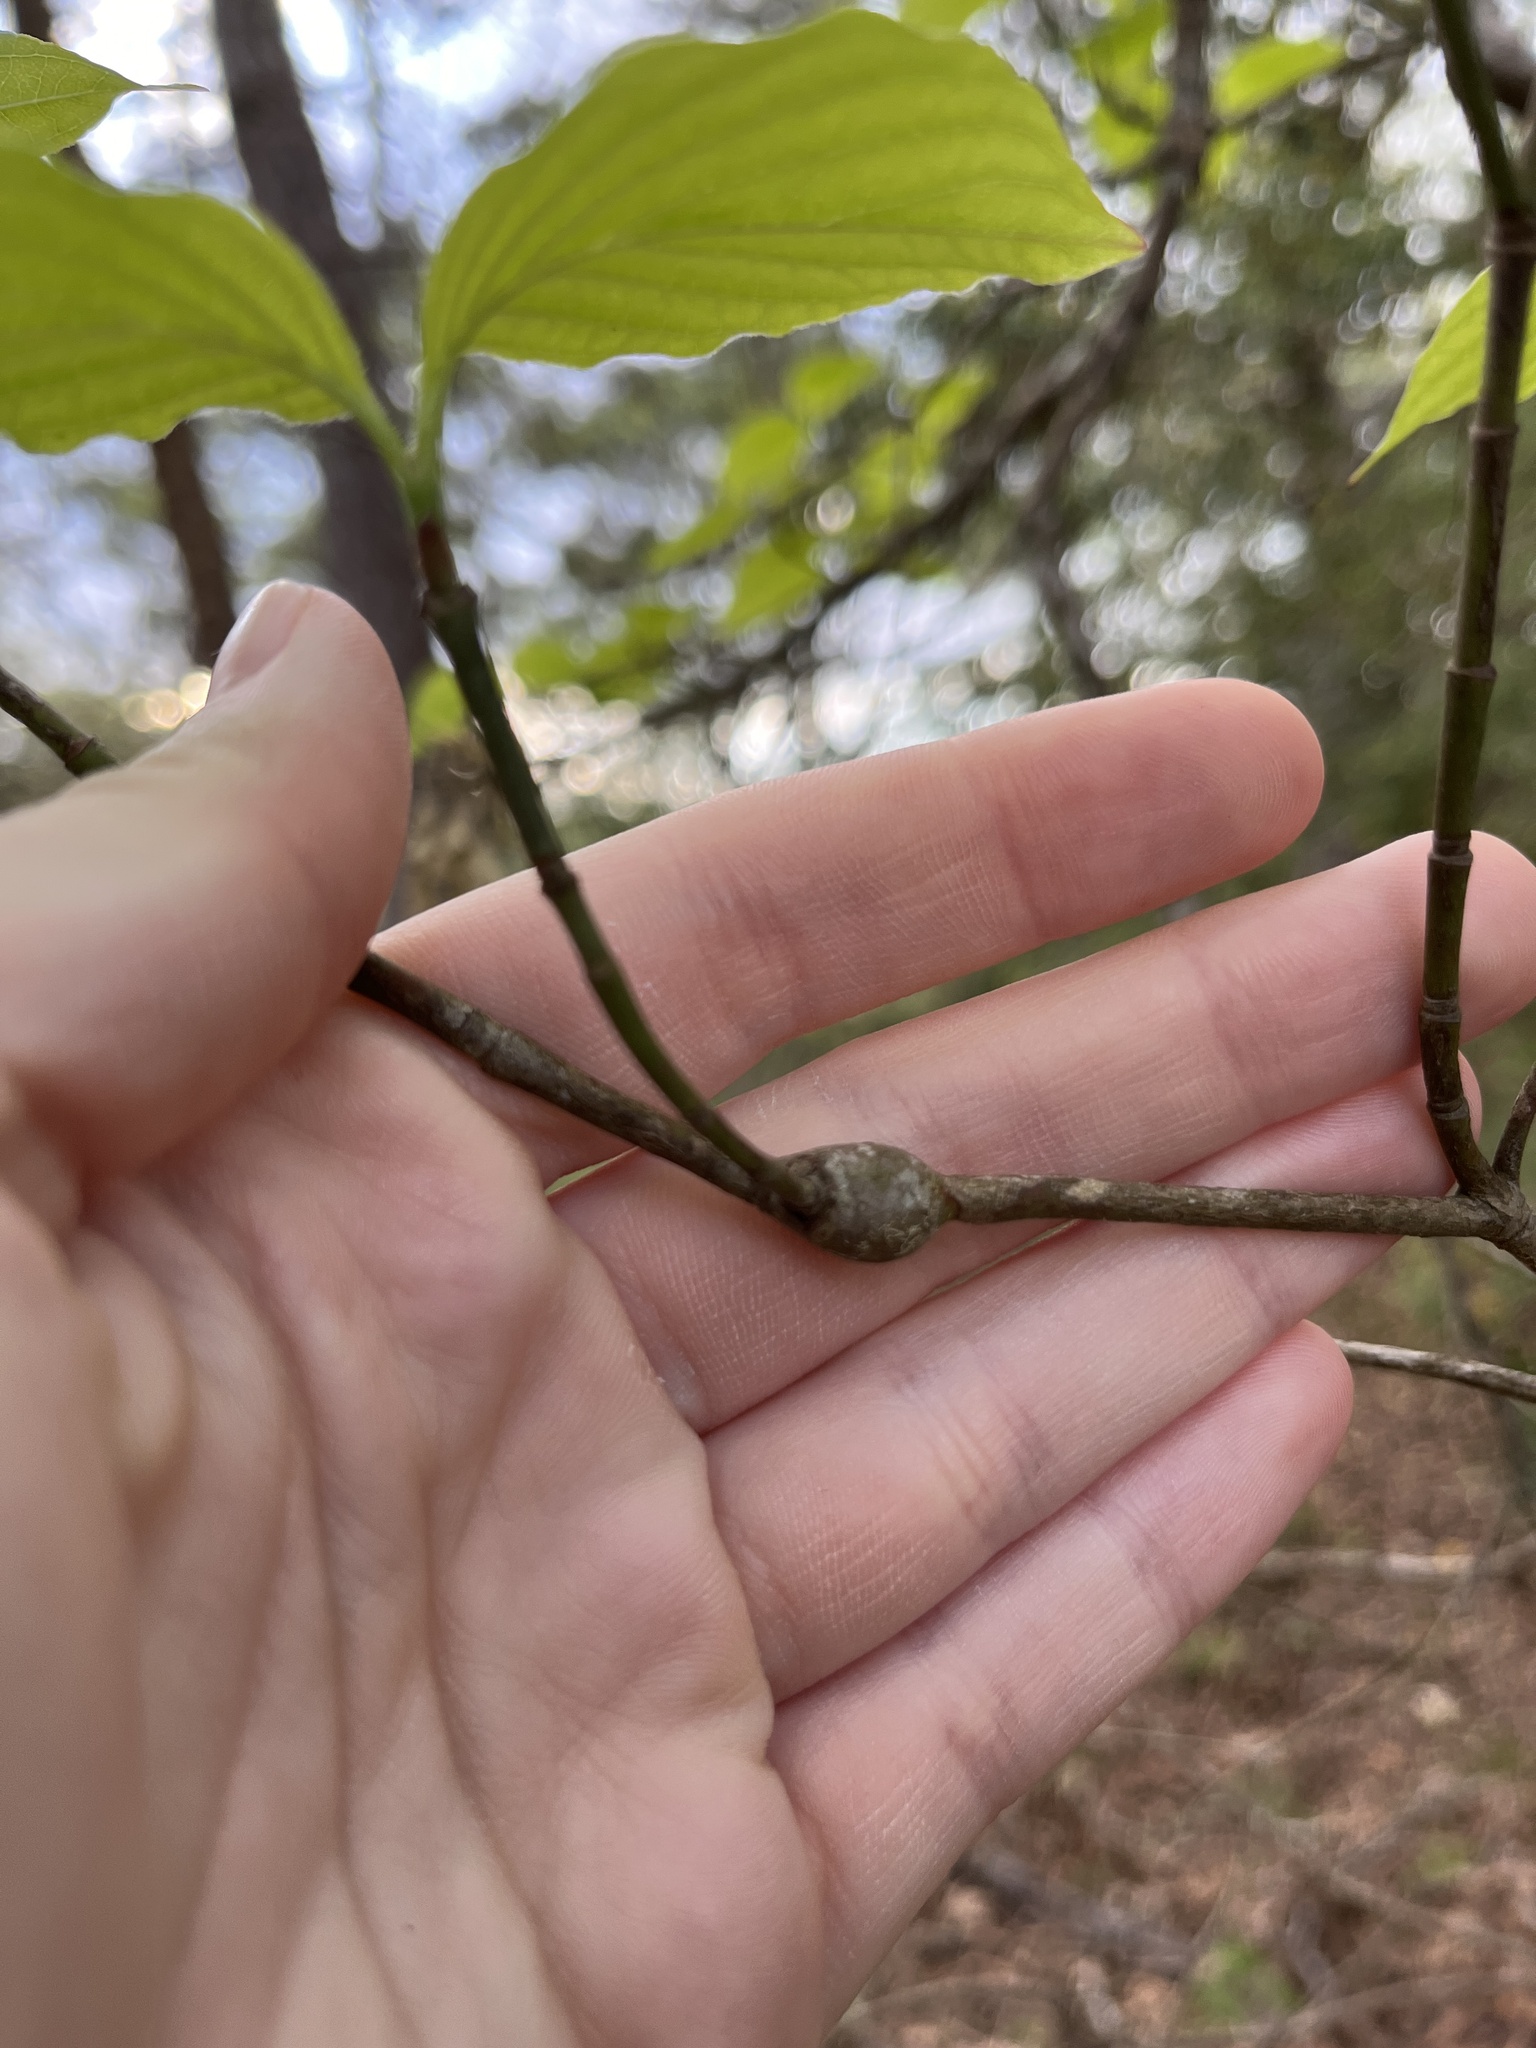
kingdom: Animalia
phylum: Arthropoda
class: Insecta
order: Diptera
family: Cecidomyiidae
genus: Resseliella
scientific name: Resseliella clavula
